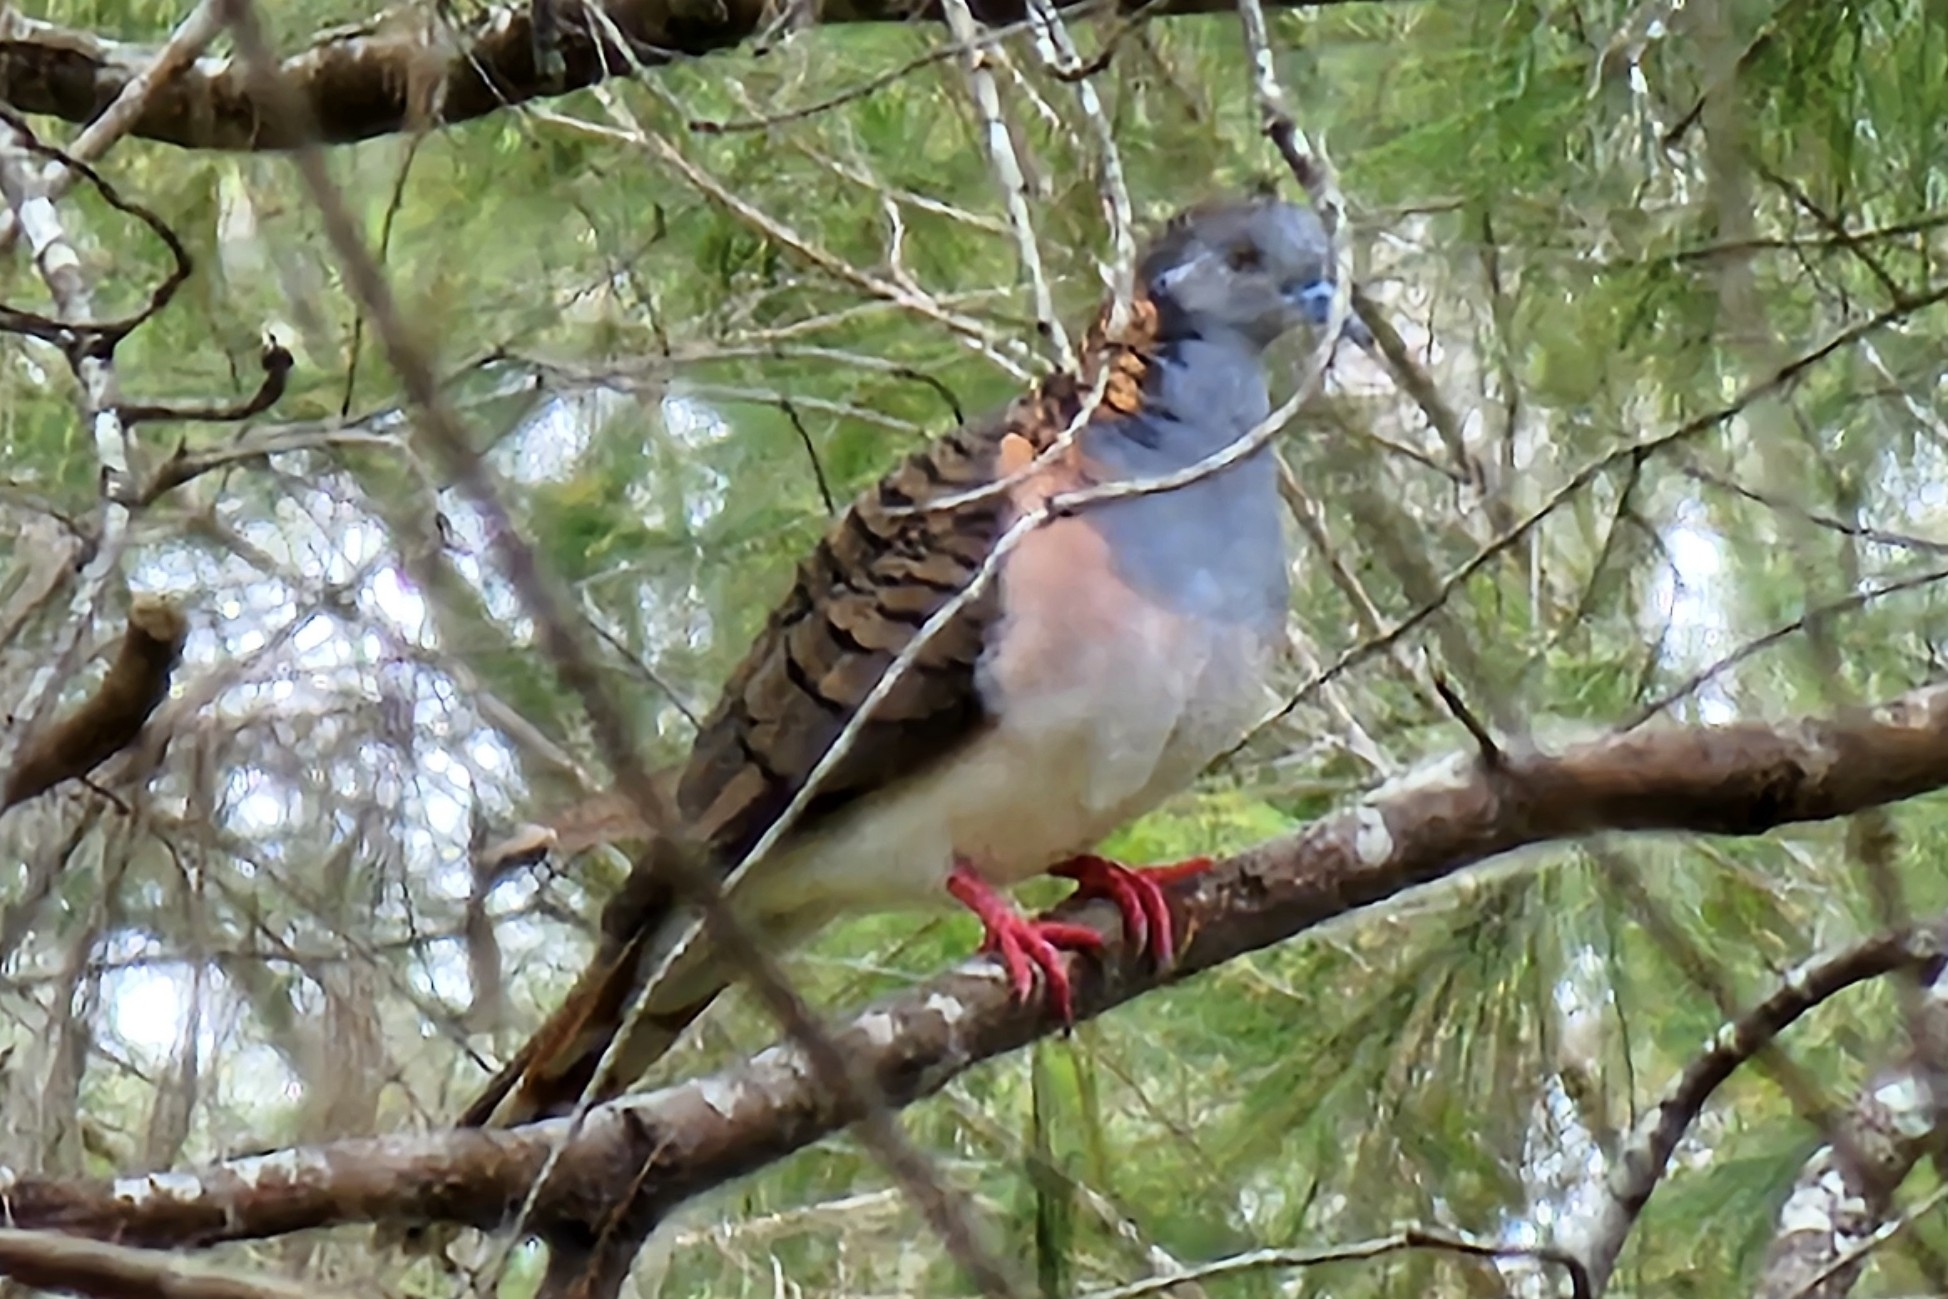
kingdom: Animalia
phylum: Chordata
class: Aves
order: Columbiformes
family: Columbidae
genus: Geopelia
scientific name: Geopelia humeralis
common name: Bar-shouldered dove
